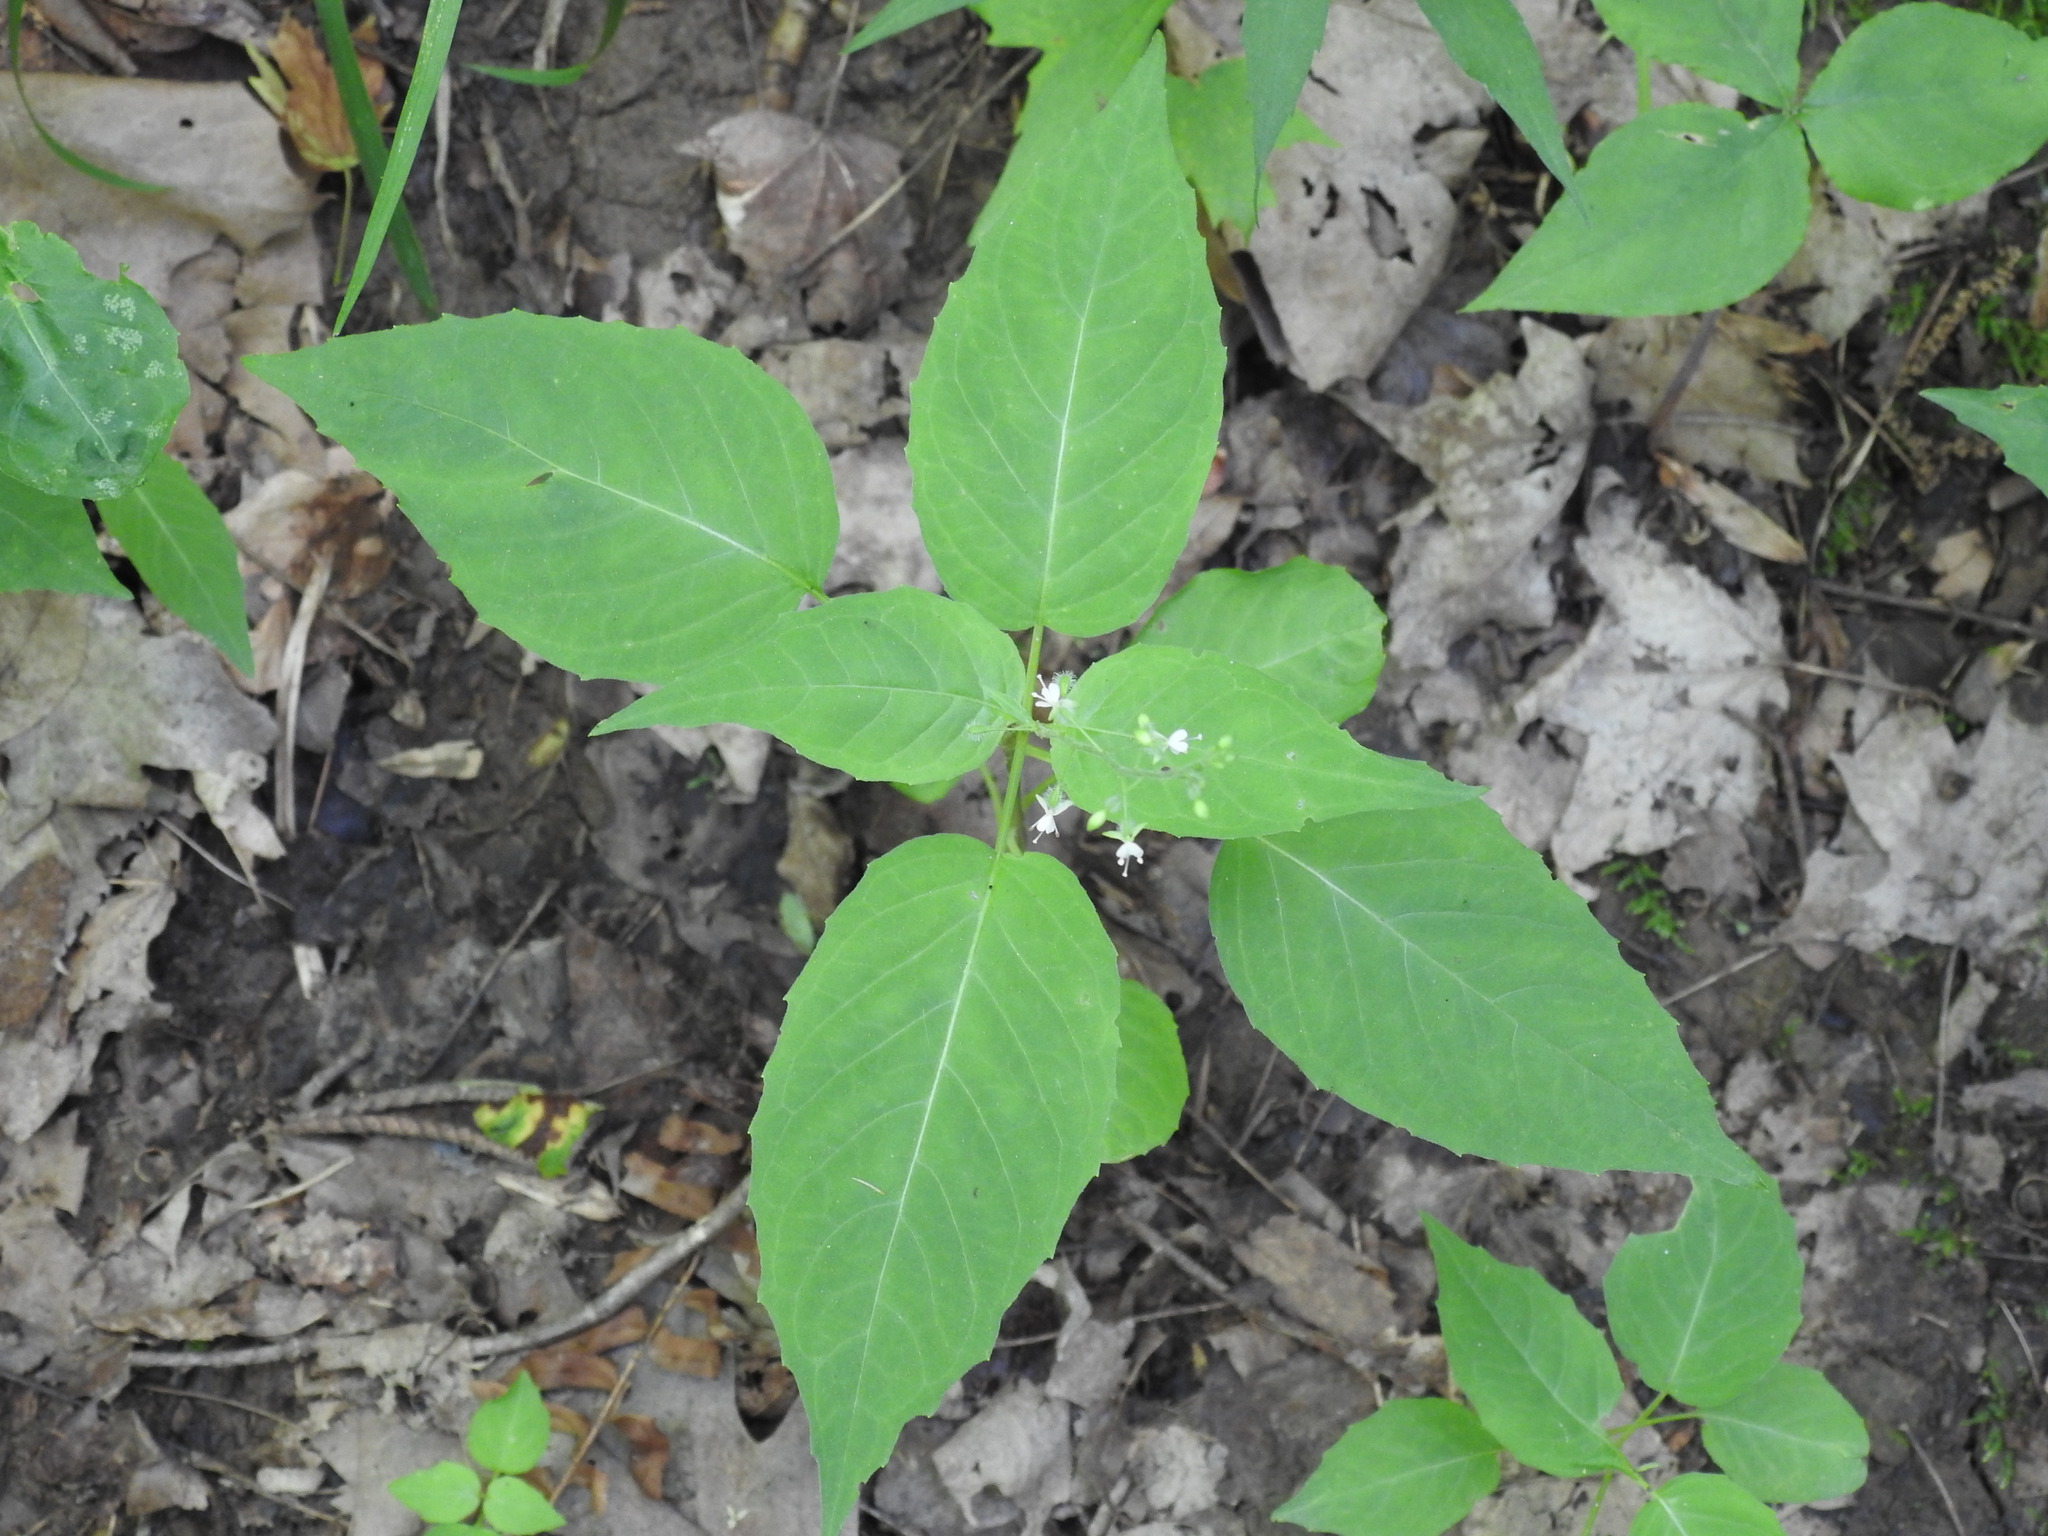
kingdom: Plantae
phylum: Tracheophyta
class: Magnoliopsida
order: Myrtales
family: Onagraceae
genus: Circaea
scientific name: Circaea canadensis
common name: Broad-leaved enchanter's nightshade
